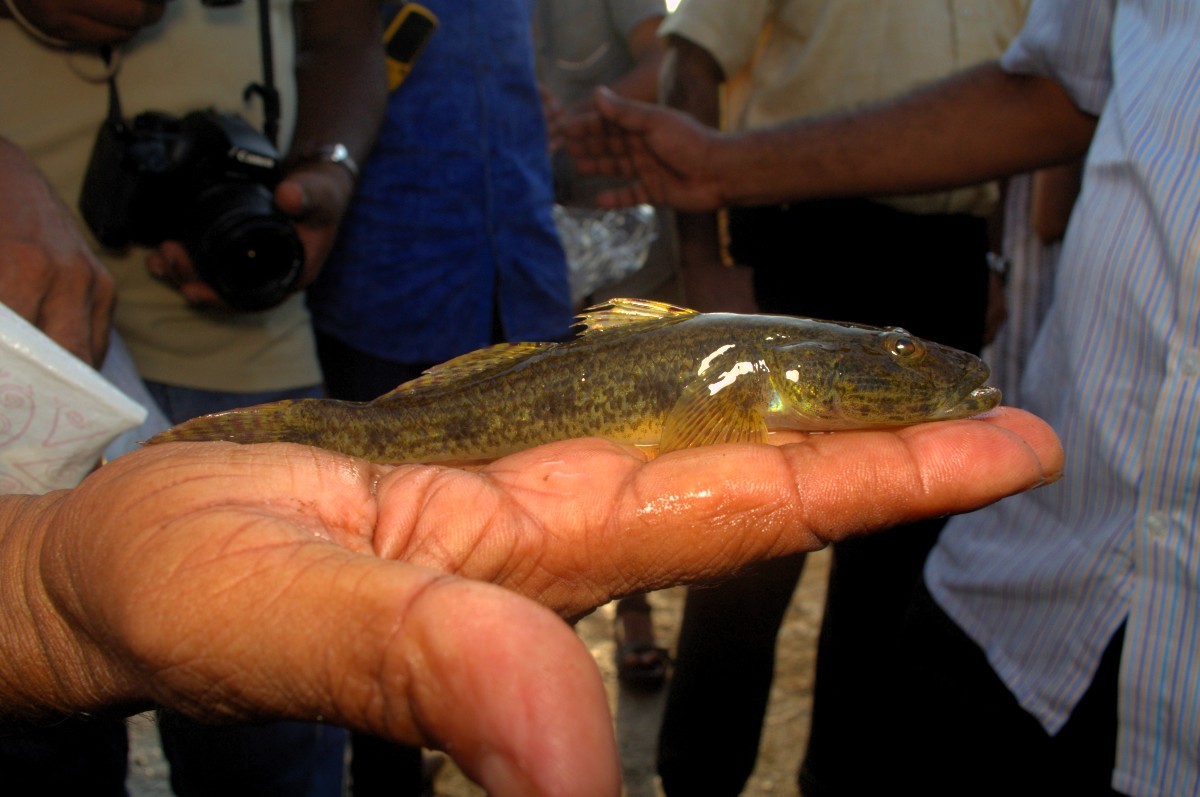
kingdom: Animalia
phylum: Chordata
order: Perciformes
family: Gobiidae
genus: Glossogobius
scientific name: Glossogobius giuris
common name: Tank goby
